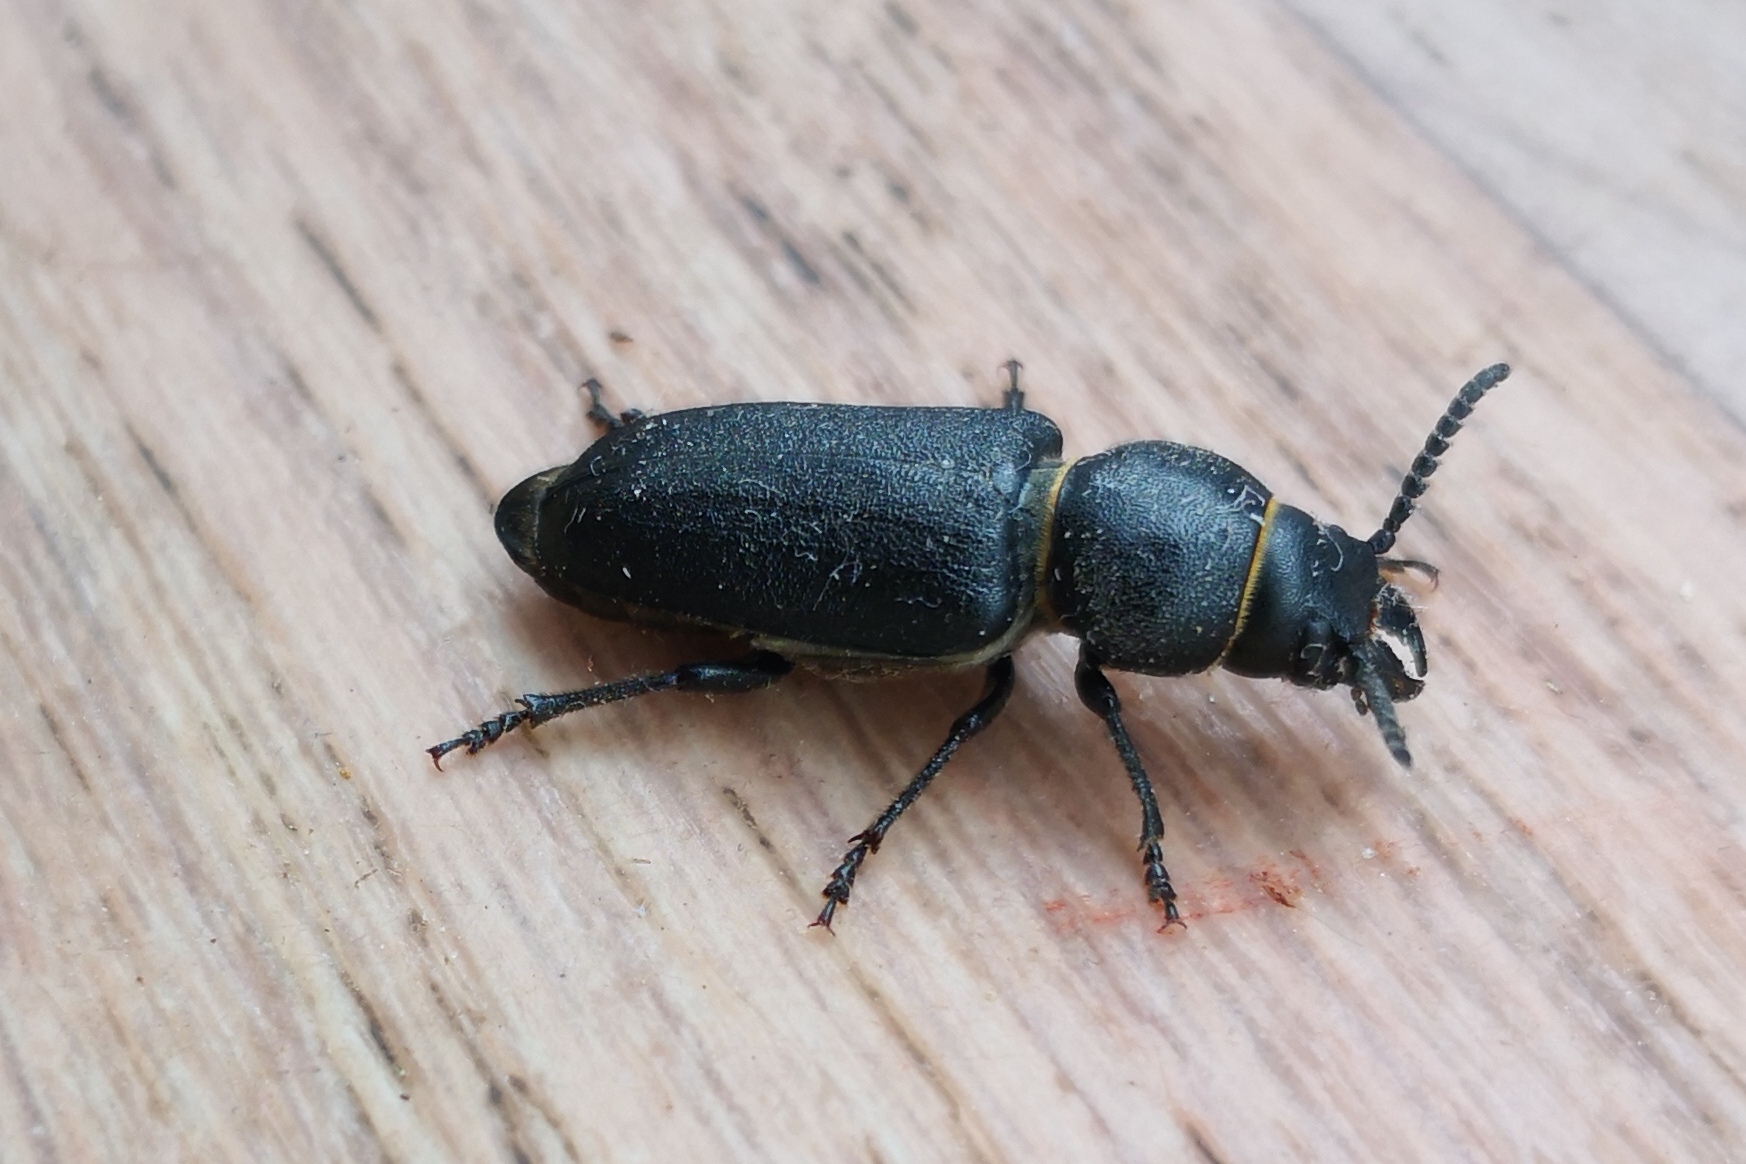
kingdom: Animalia
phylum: Arthropoda
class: Insecta
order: Coleoptera
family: Cerambycidae
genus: Spondylis
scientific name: Spondylis buprestoides
